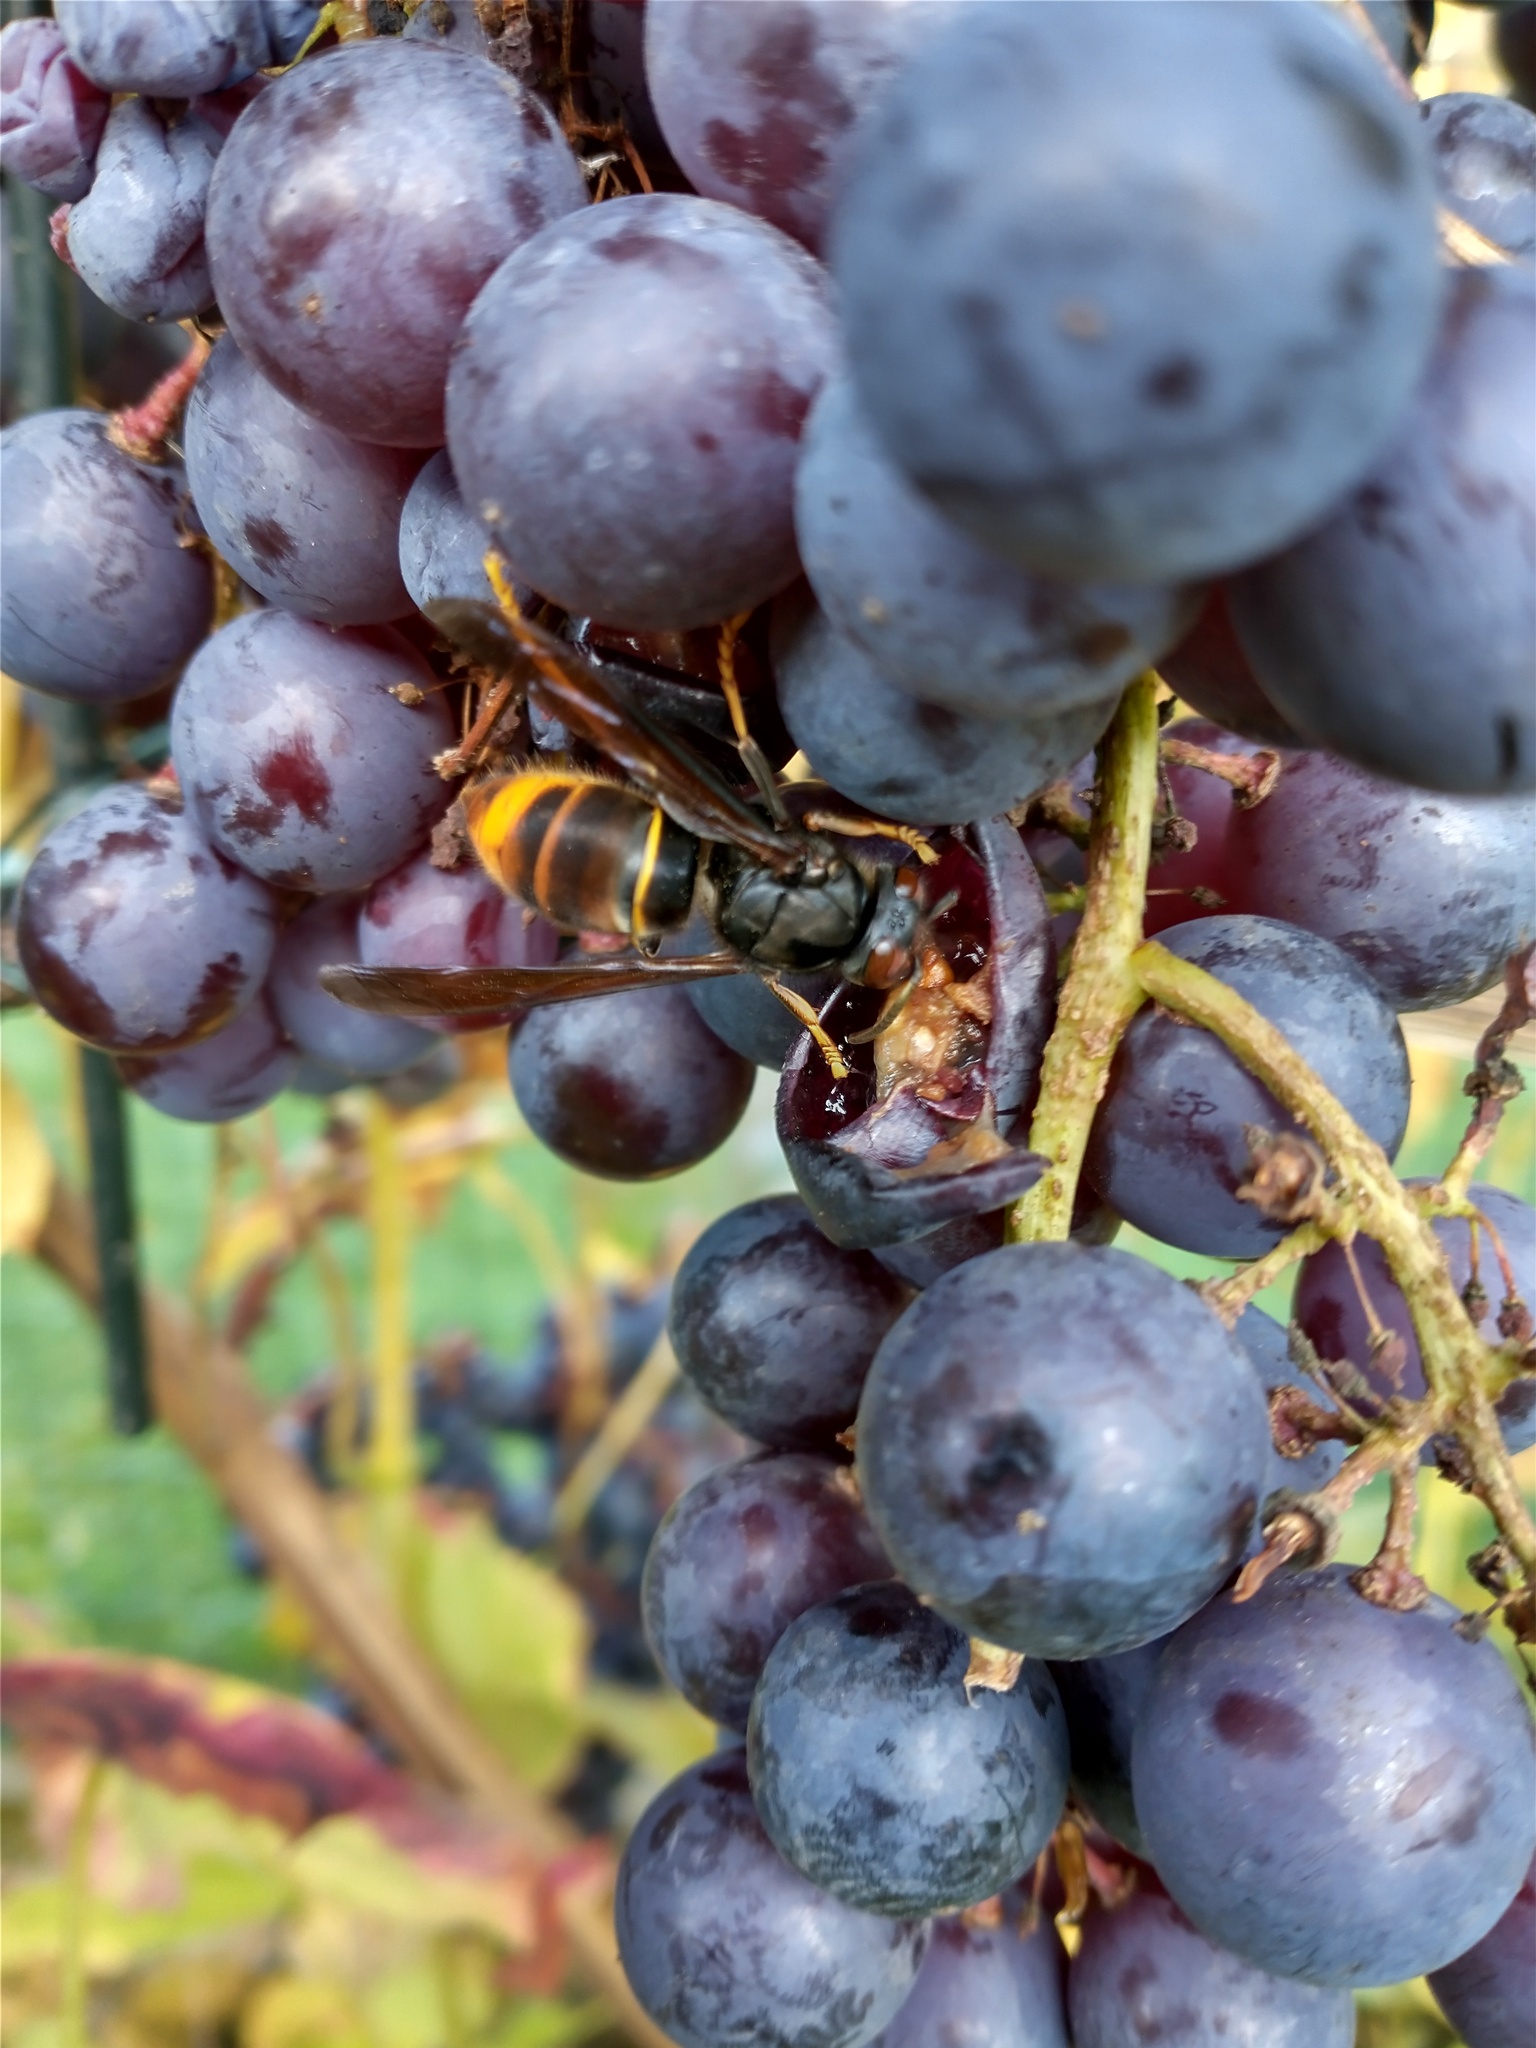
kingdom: Animalia
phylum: Arthropoda
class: Insecta
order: Hymenoptera
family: Vespidae
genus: Vespa
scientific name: Vespa velutina
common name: Asian hornet
